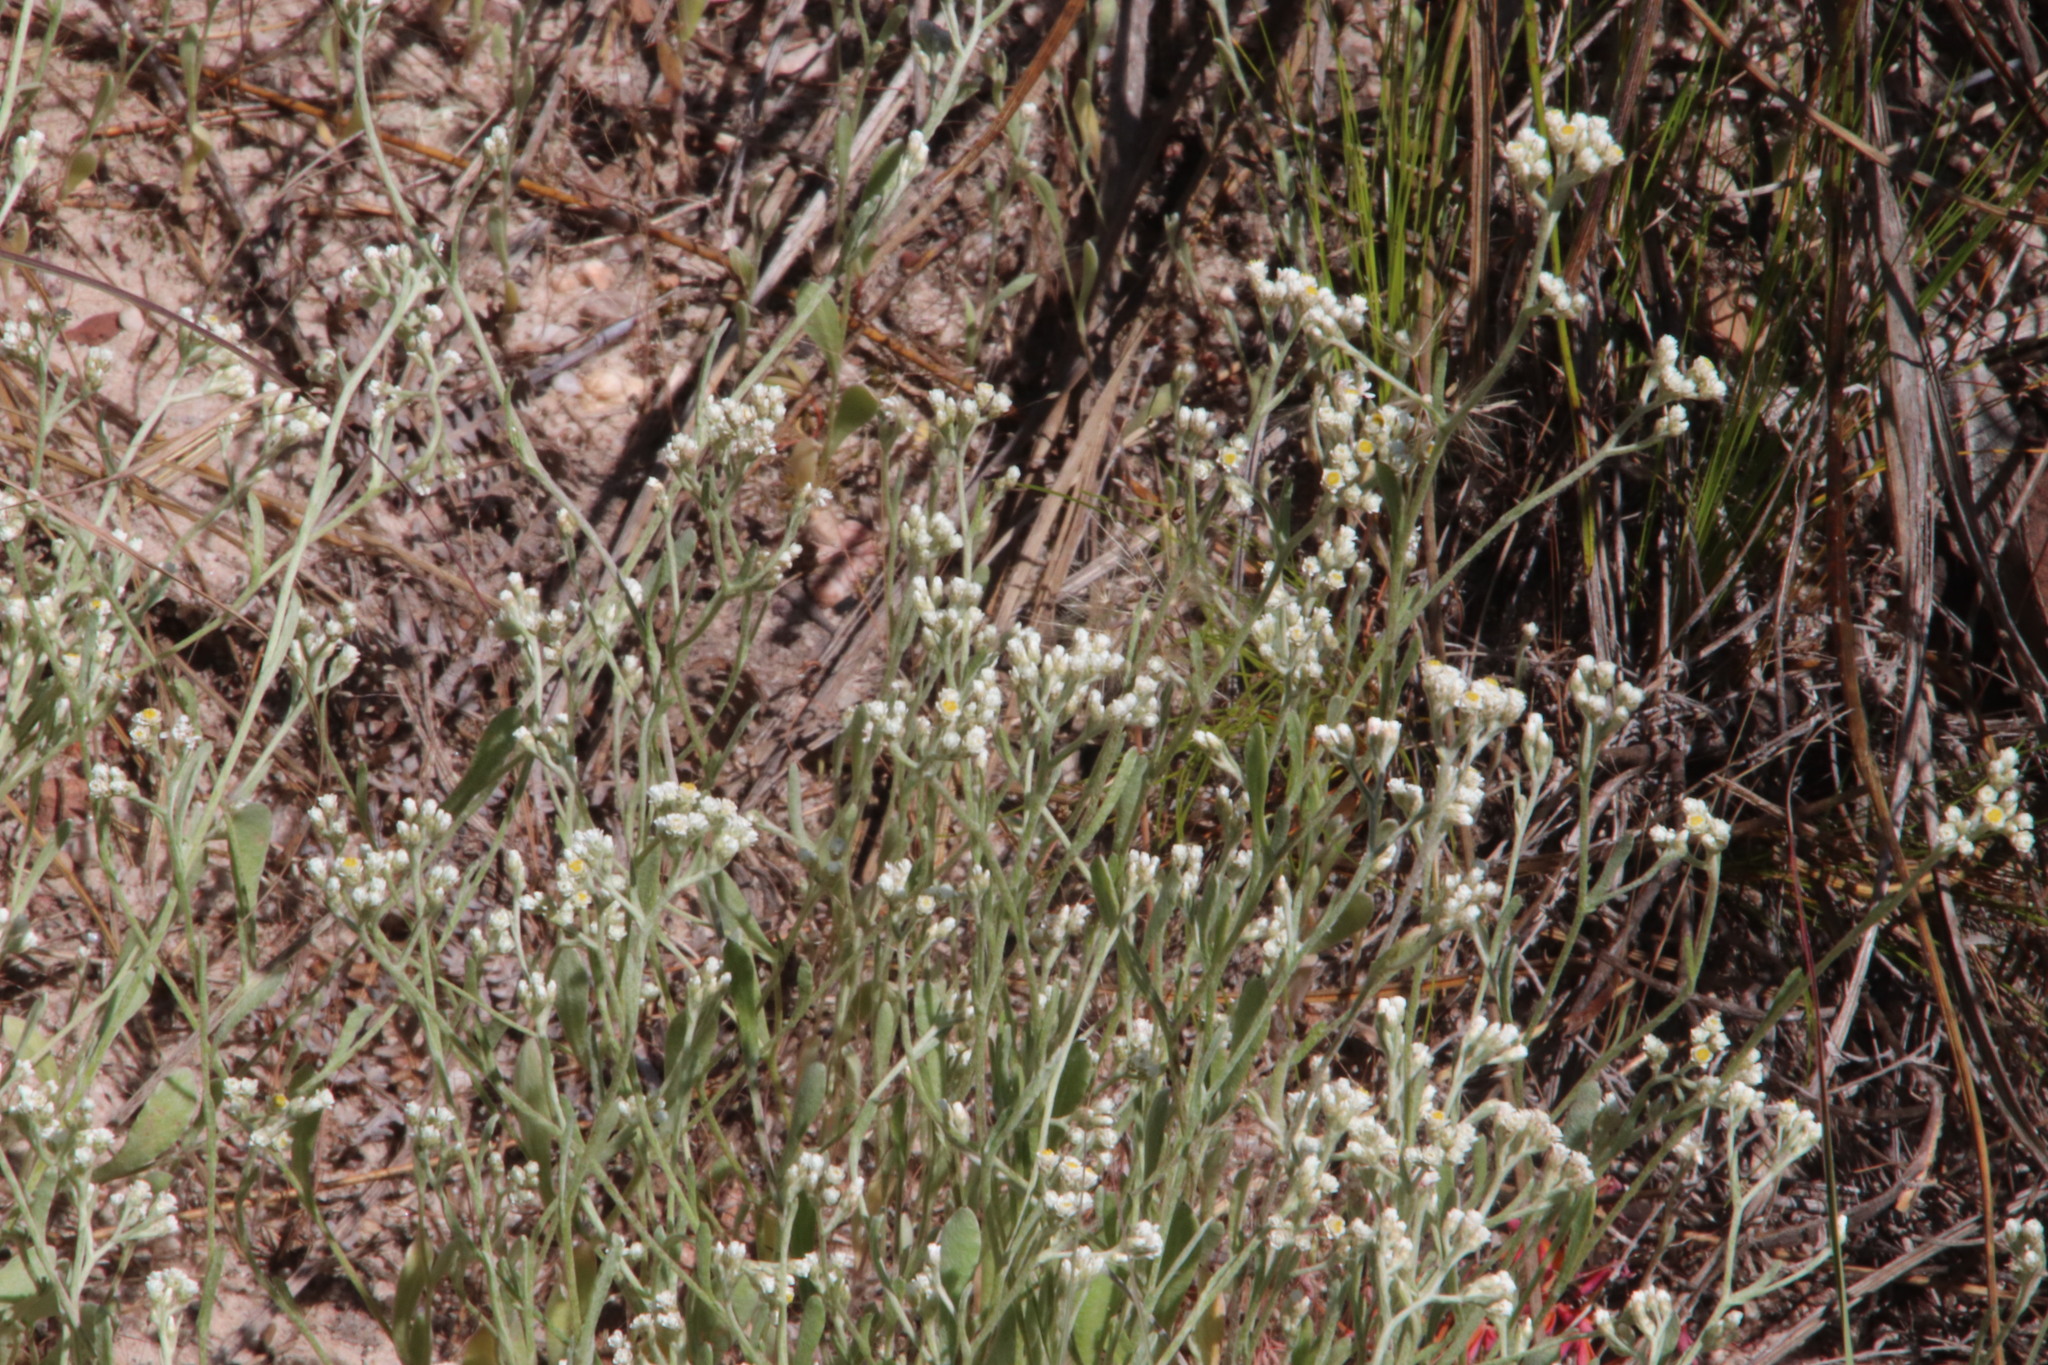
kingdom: Plantae
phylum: Tracheophyta
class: Magnoliopsida
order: Asterales
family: Asteraceae
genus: Helichrysum
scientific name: Helichrysum indicum
